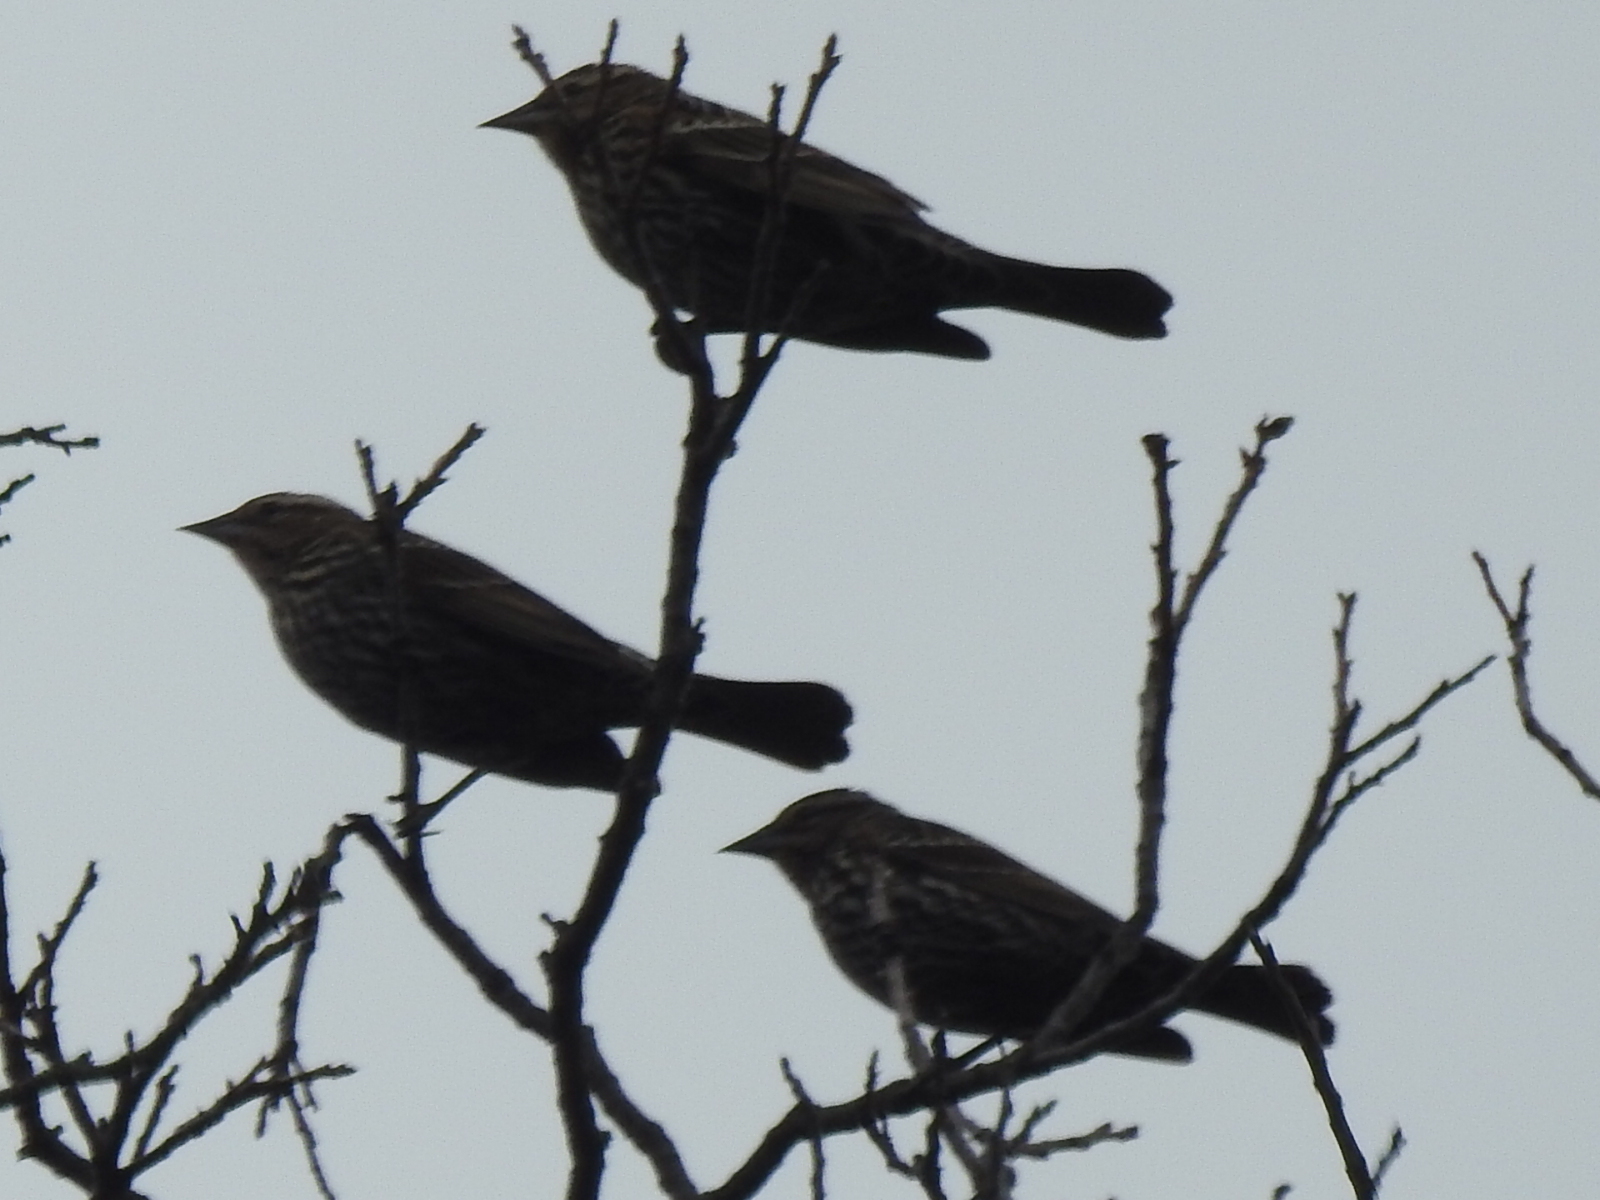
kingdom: Animalia
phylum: Chordata
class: Aves
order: Passeriformes
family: Icteridae
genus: Agelaius
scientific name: Agelaius phoeniceus
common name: Red-winged blackbird
